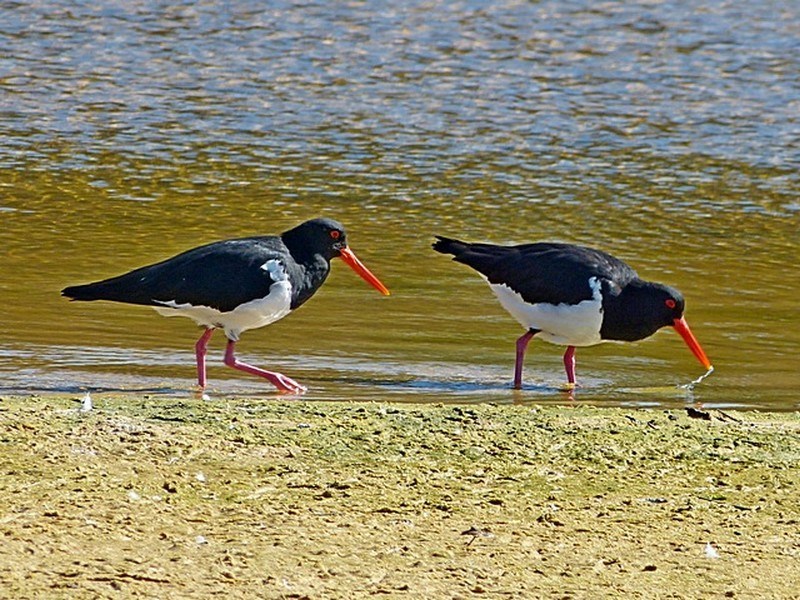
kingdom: Animalia
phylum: Chordata
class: Aves
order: Charadriiformes
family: Haematopodidae
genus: Haematopus
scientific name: Haematopus longirostris
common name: Pied oystercatcher
